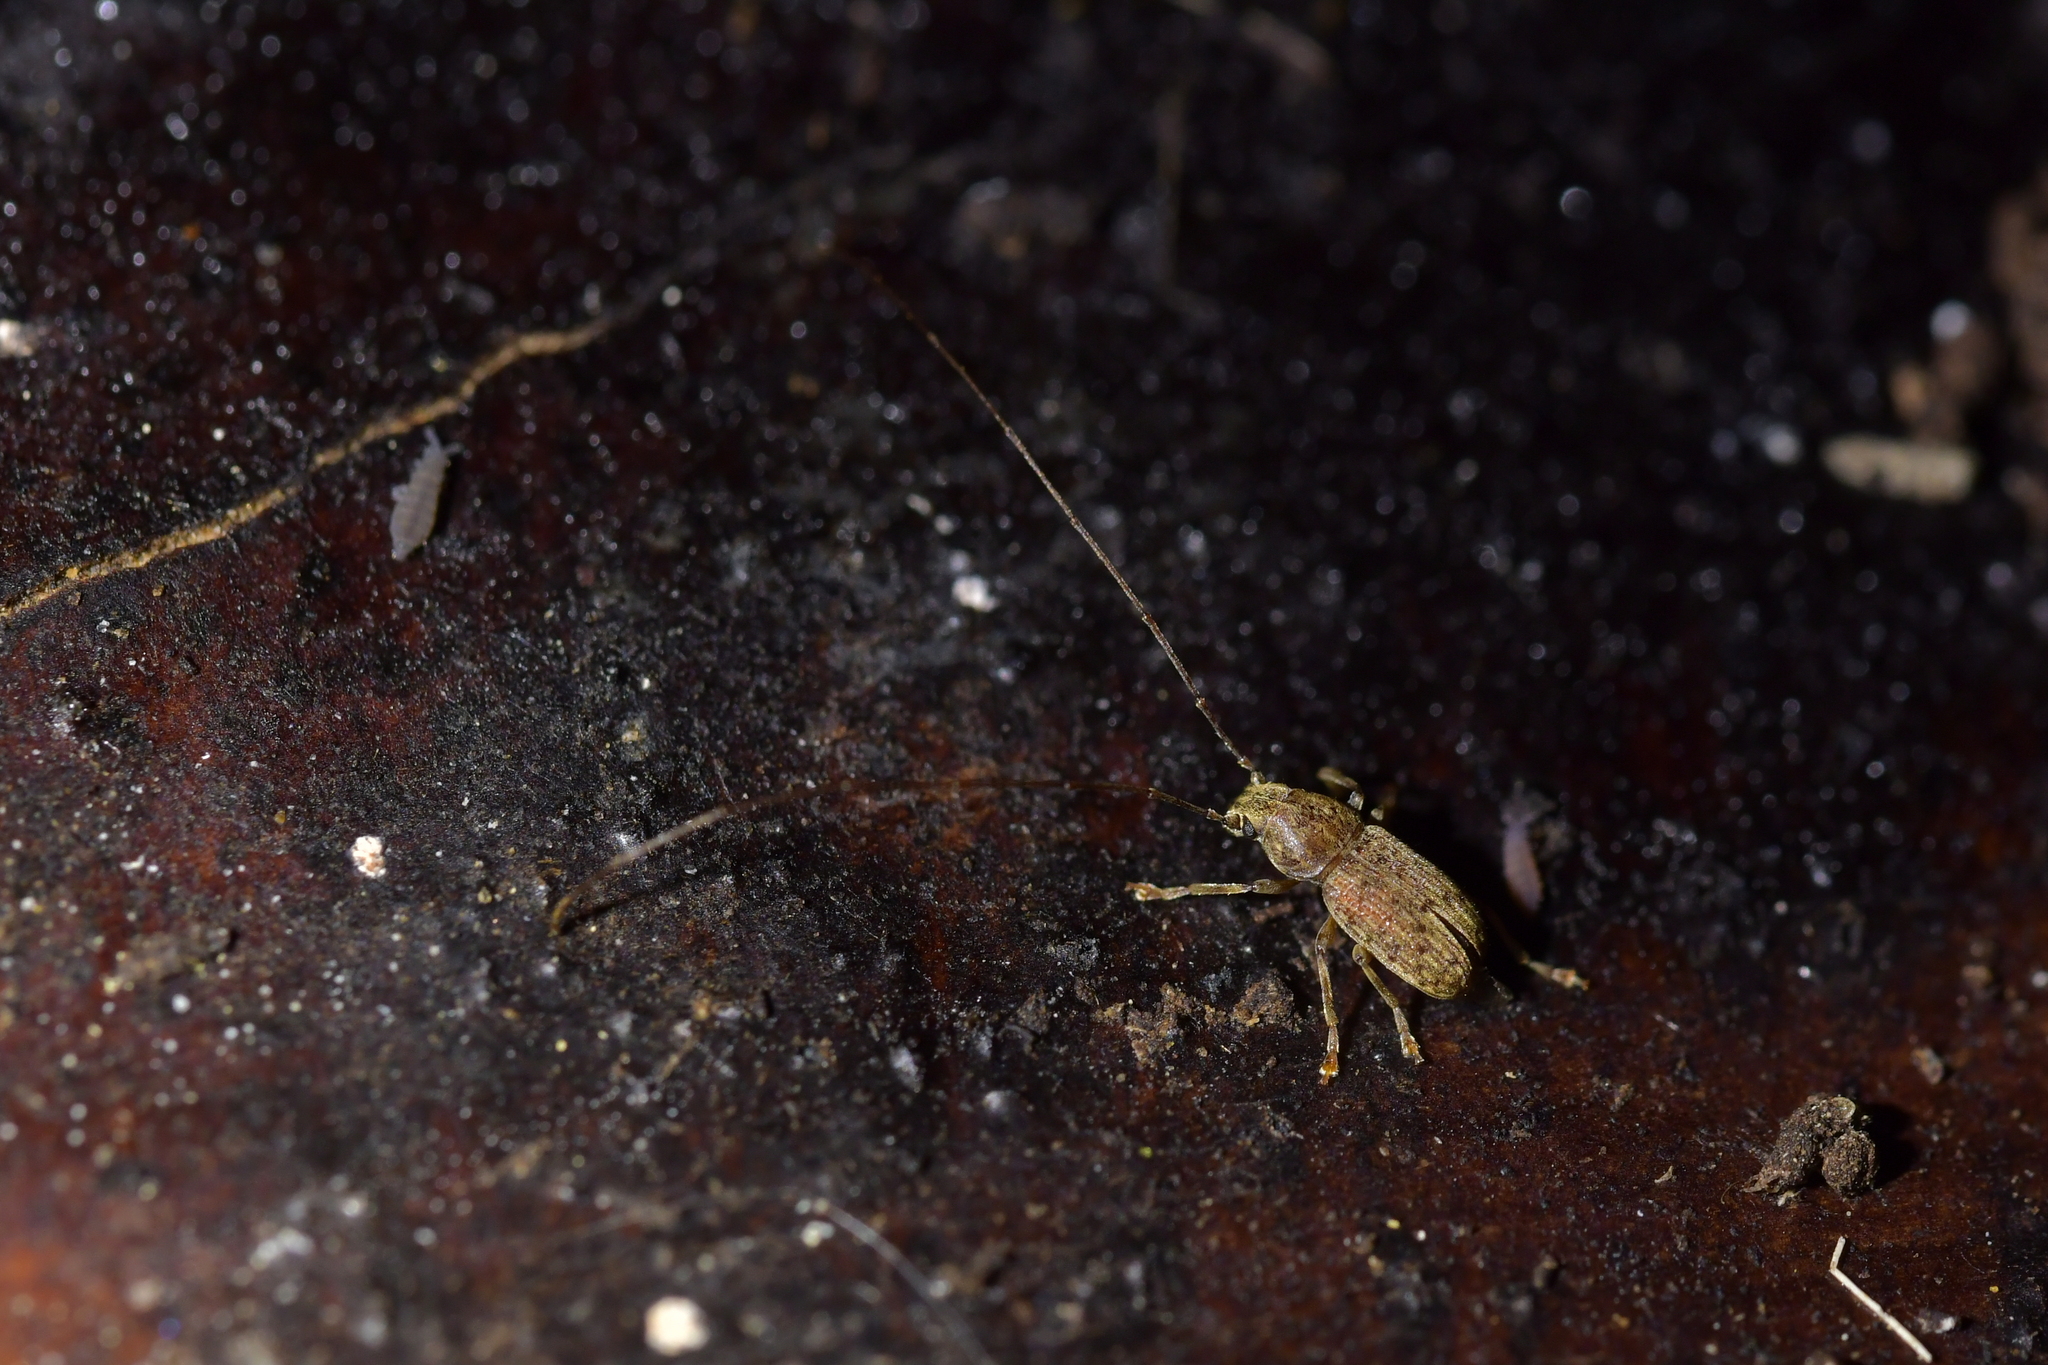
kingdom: Animalia
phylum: Arthropoda
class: Insecta
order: Coleoptera
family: Anthribidae
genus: Arecopais
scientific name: Arecopais spectabilis
